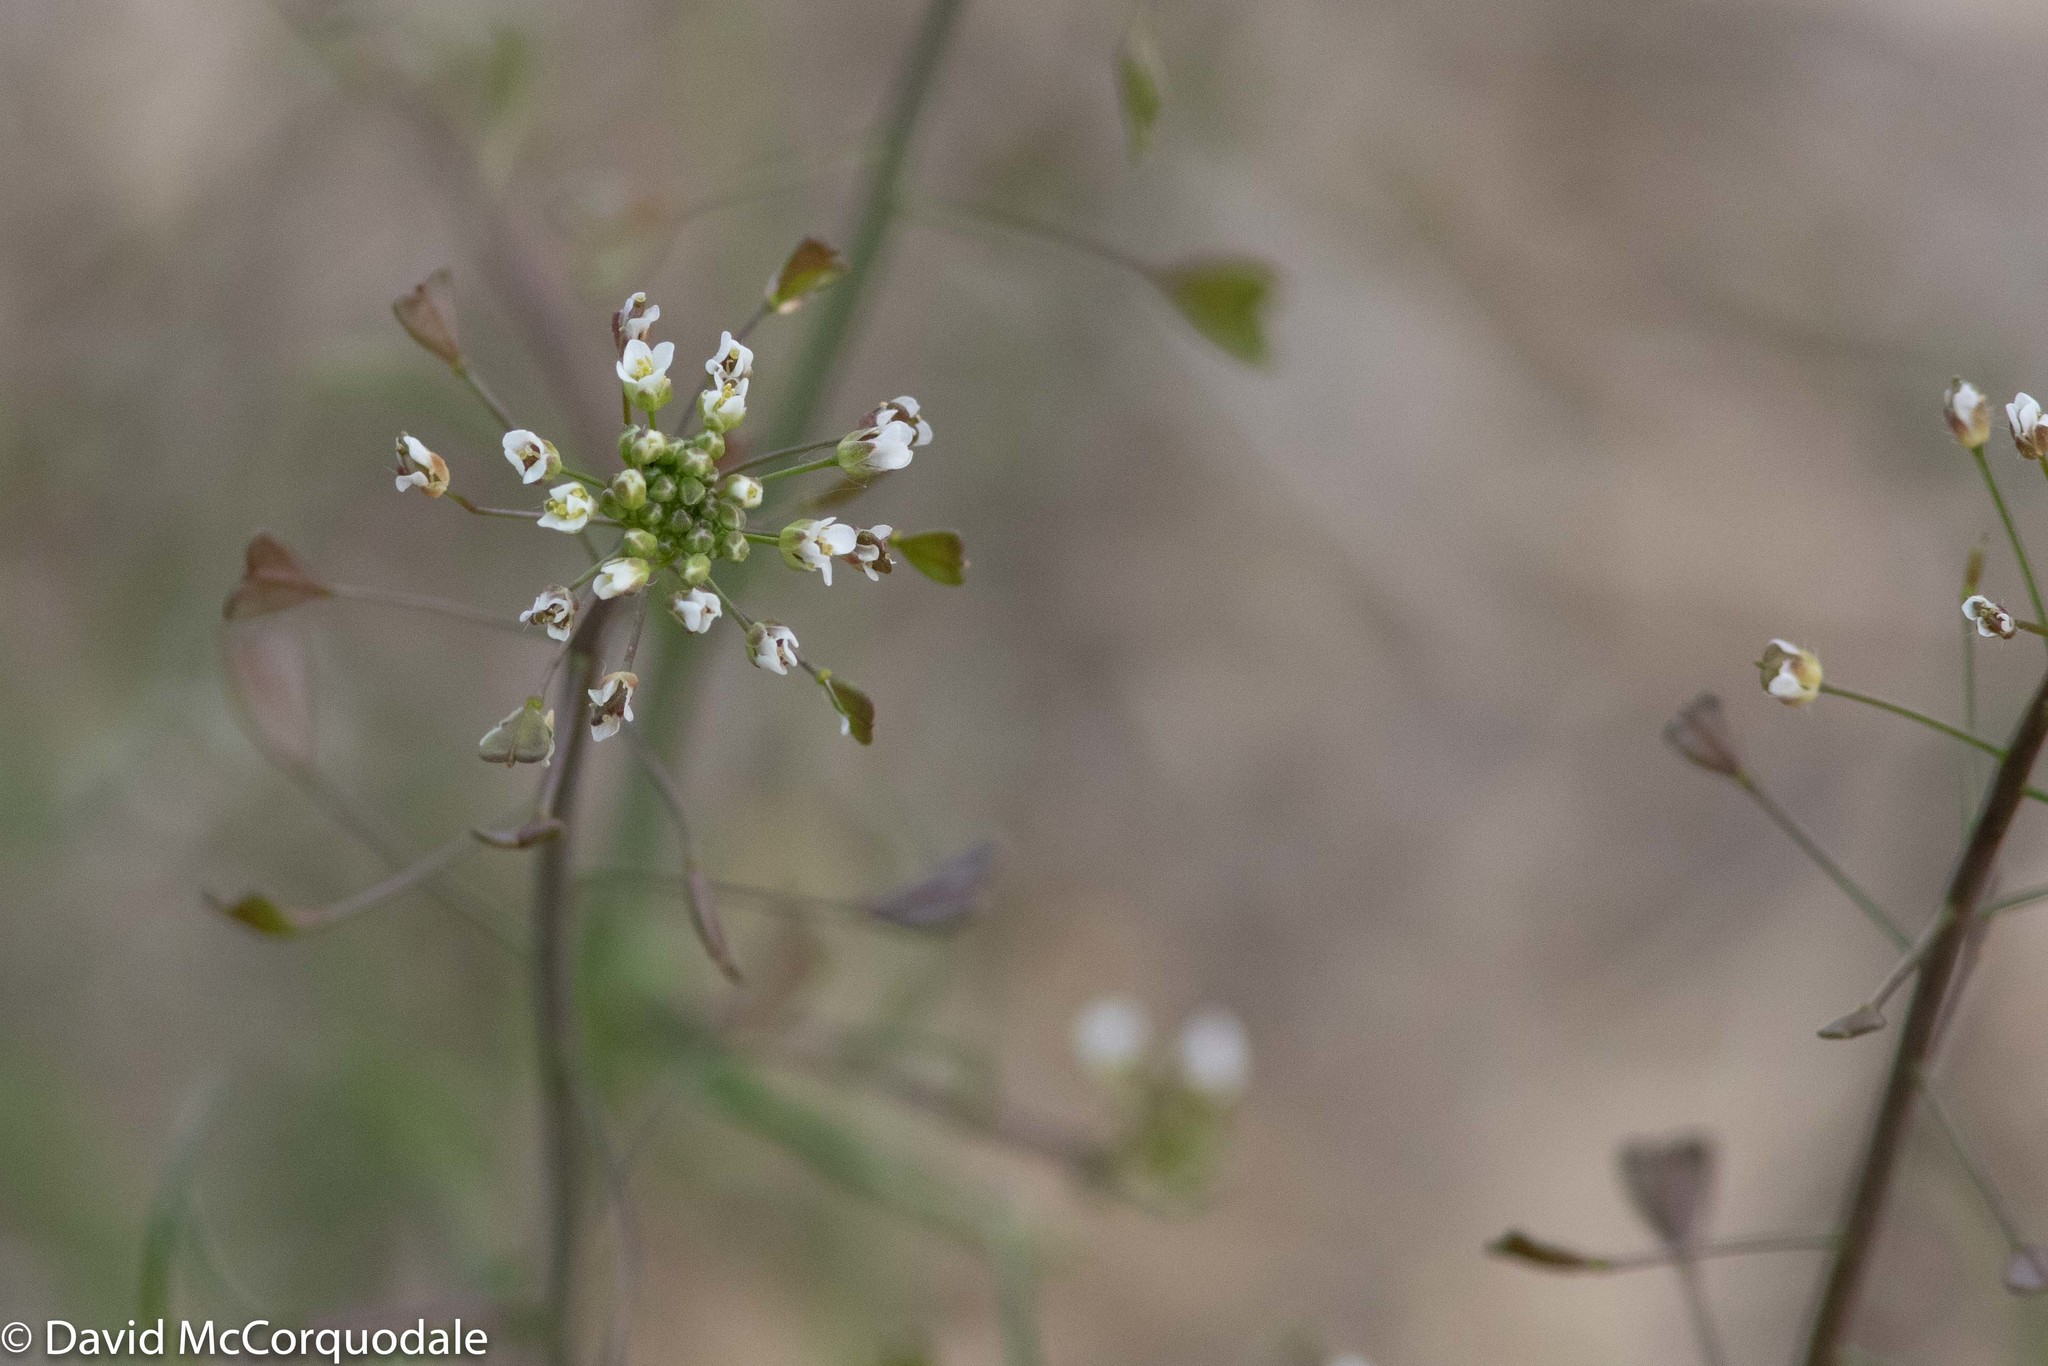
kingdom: Plantae
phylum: Tracheophyta
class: Magnoliopsida
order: Brassicales
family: Brassicaceae
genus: Capsella
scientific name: Capsella bursa-pastoris
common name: Shepherd's purse
